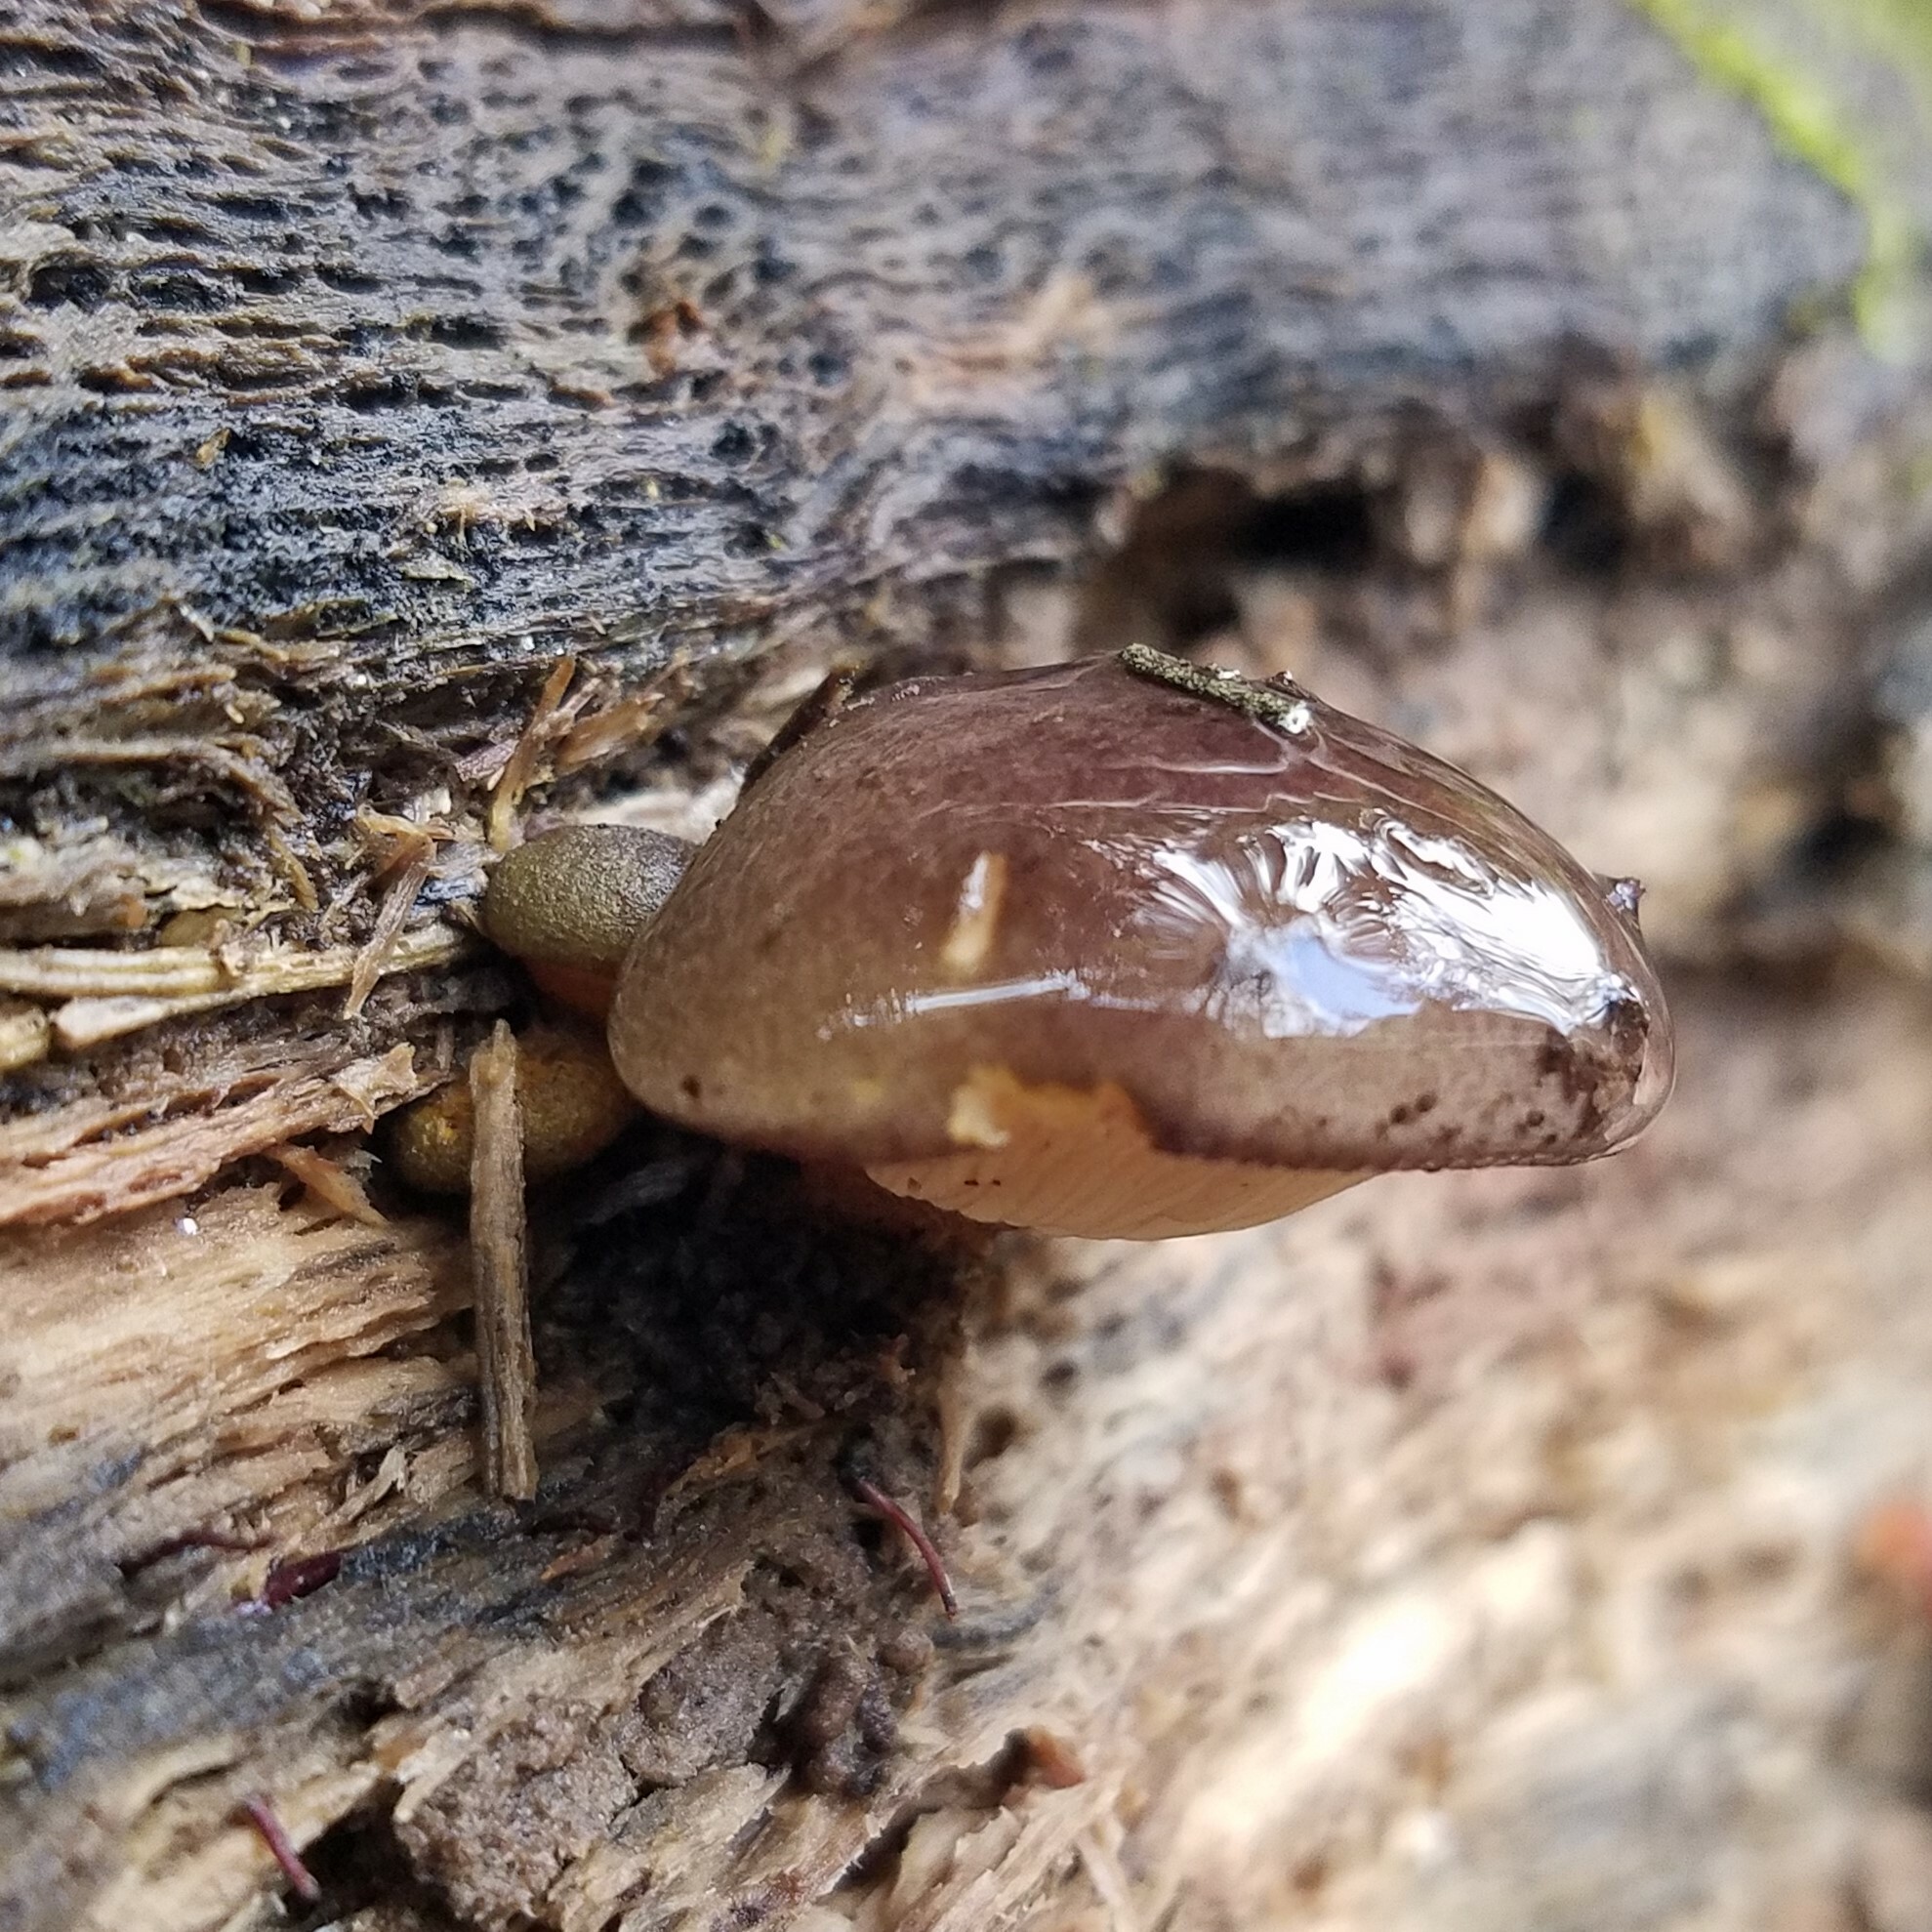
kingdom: Fungi
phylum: Basidiomycota
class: Agaricomycetes
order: Agaricales
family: Sarcomyxaceae
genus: Sarcomyxa
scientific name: Sarcomyxa serotina
